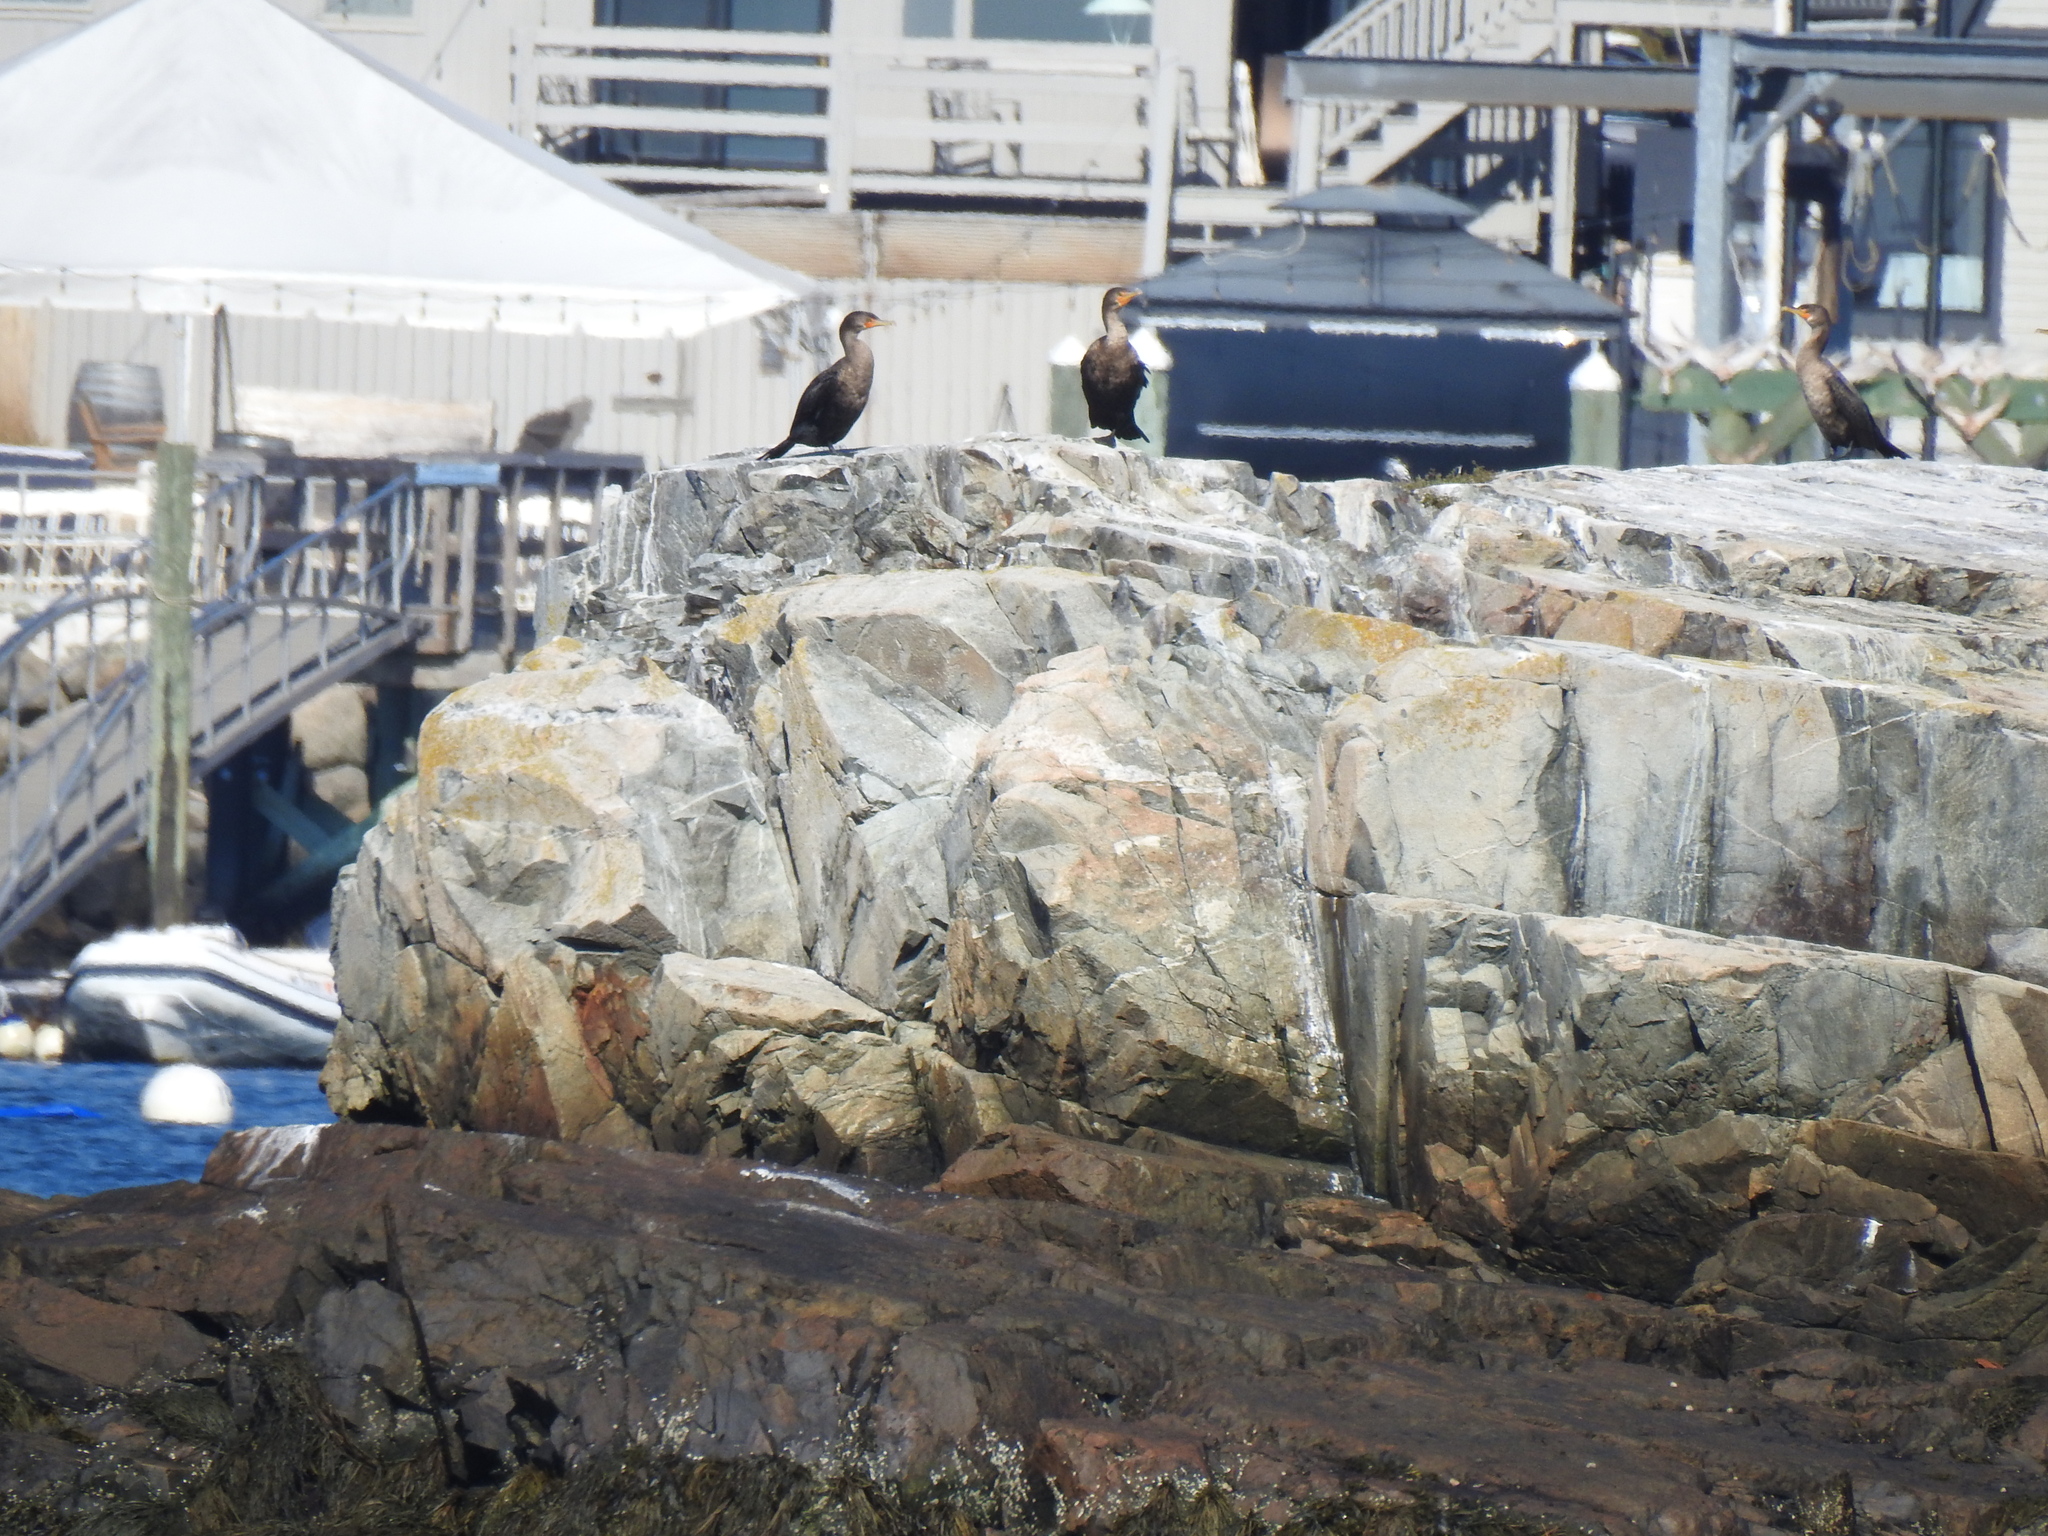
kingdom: Animalia
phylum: Chordata
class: Aves
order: Suliformes
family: Phalacrocoracidae
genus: Phalacrocorax
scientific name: Phalacrocorax auritus
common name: Double-crested cormorant
